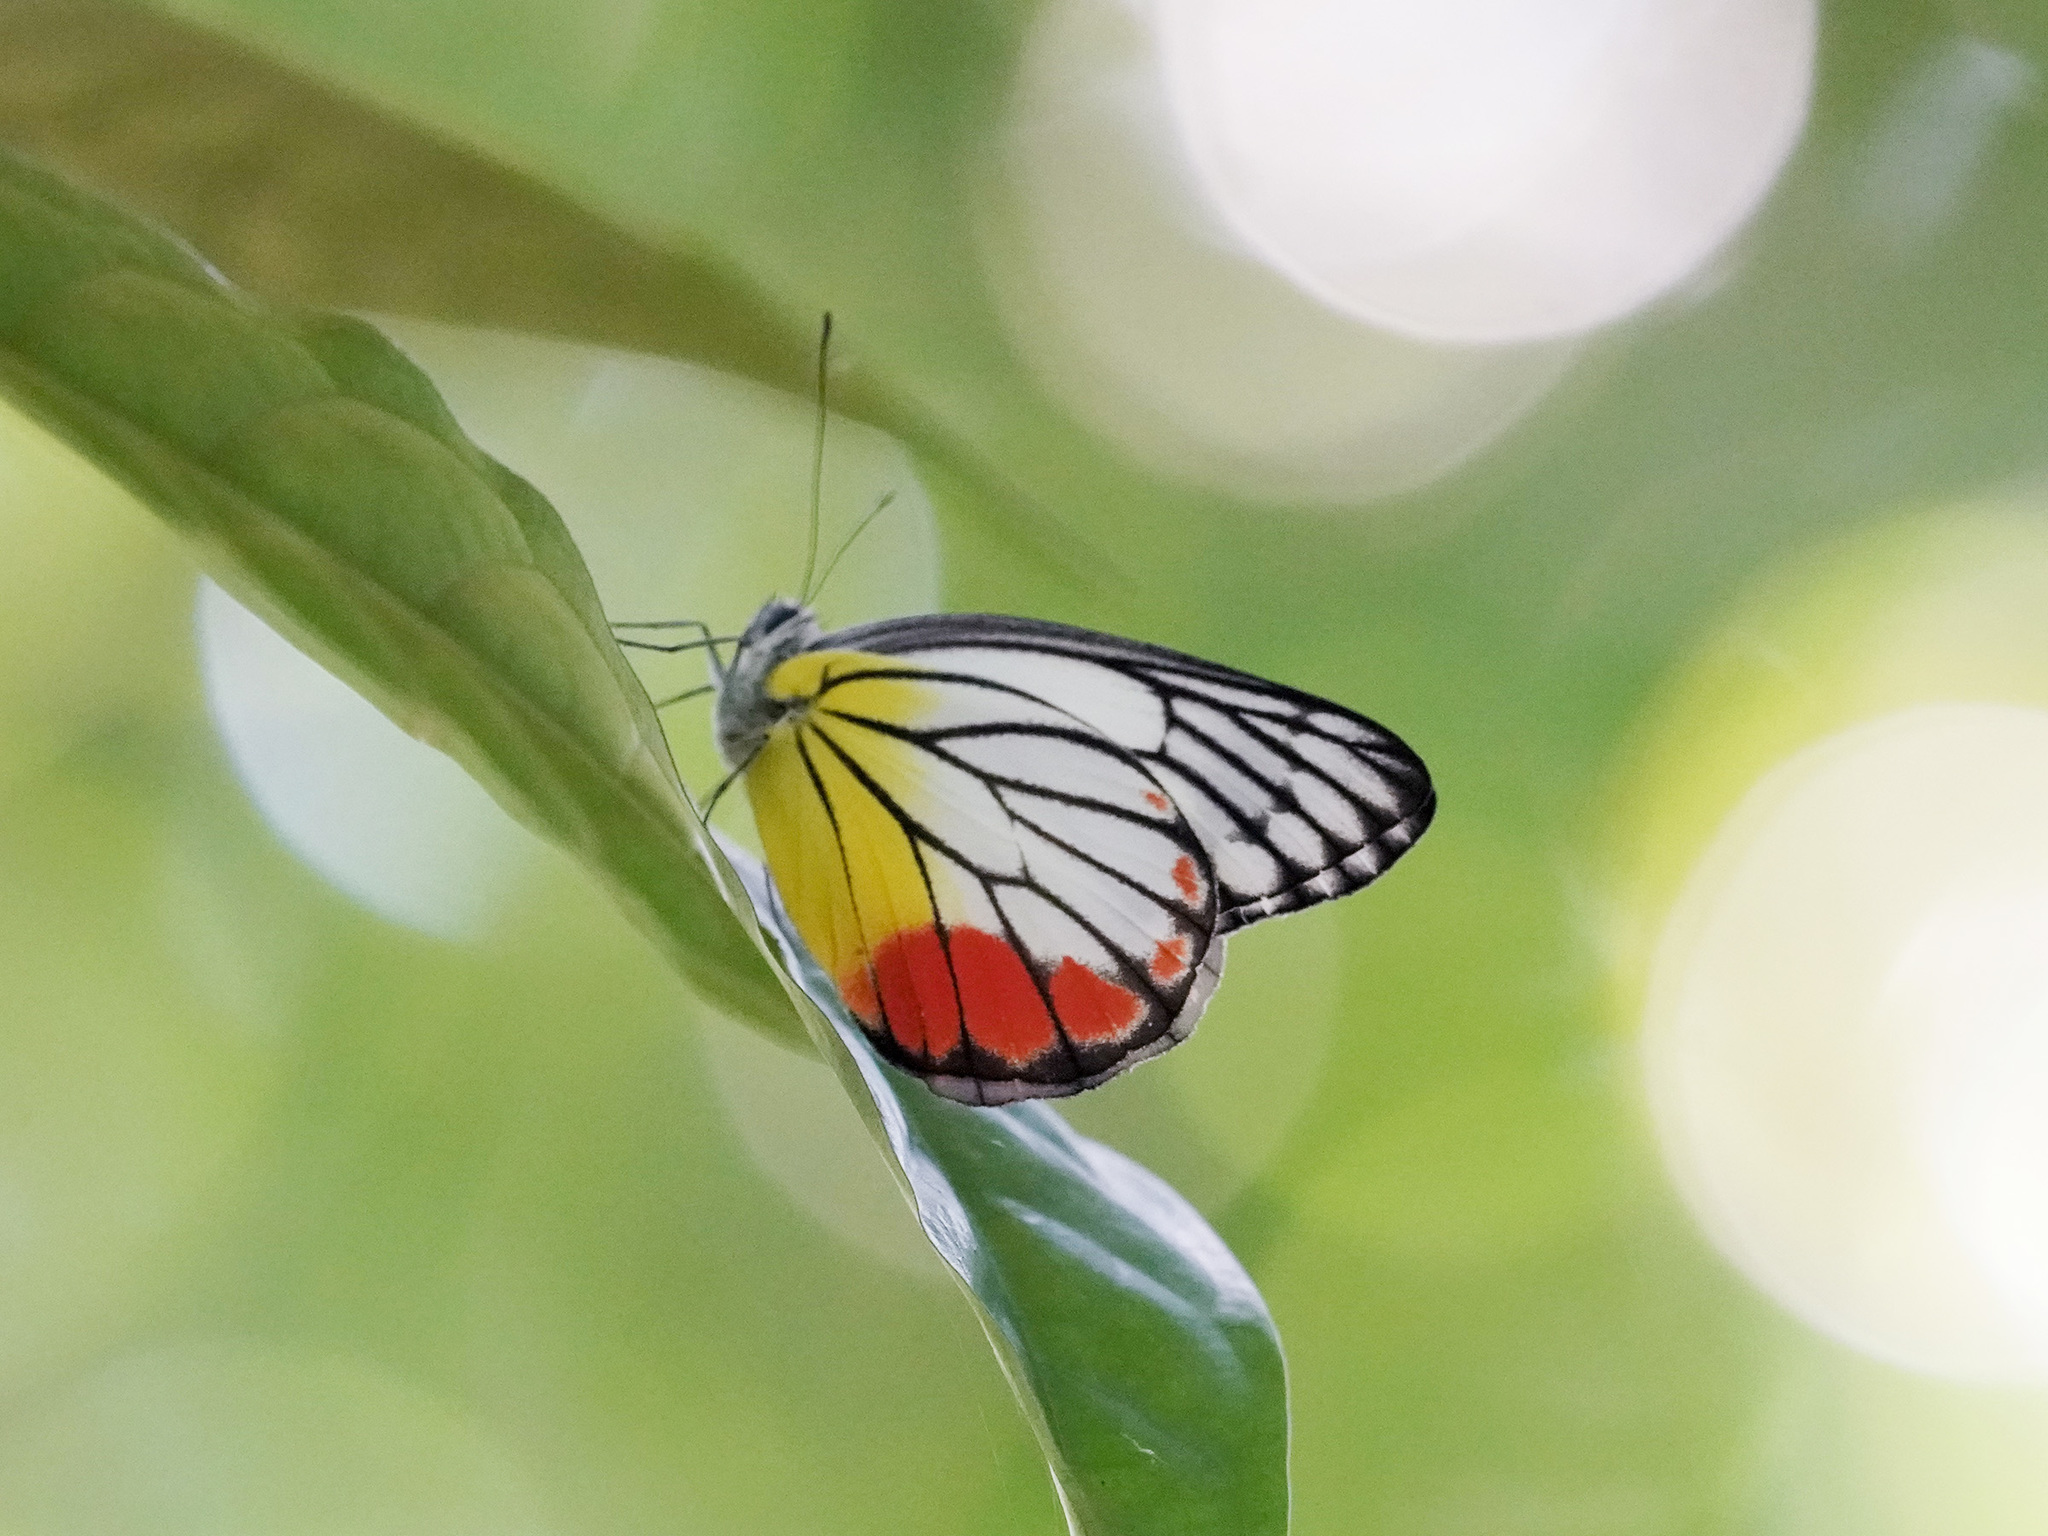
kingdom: Animalia
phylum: Arthropoda
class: Insecta
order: Lepidoptera
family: Pieridae
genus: Delias
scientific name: Delias hyparete
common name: Painted jezebel
